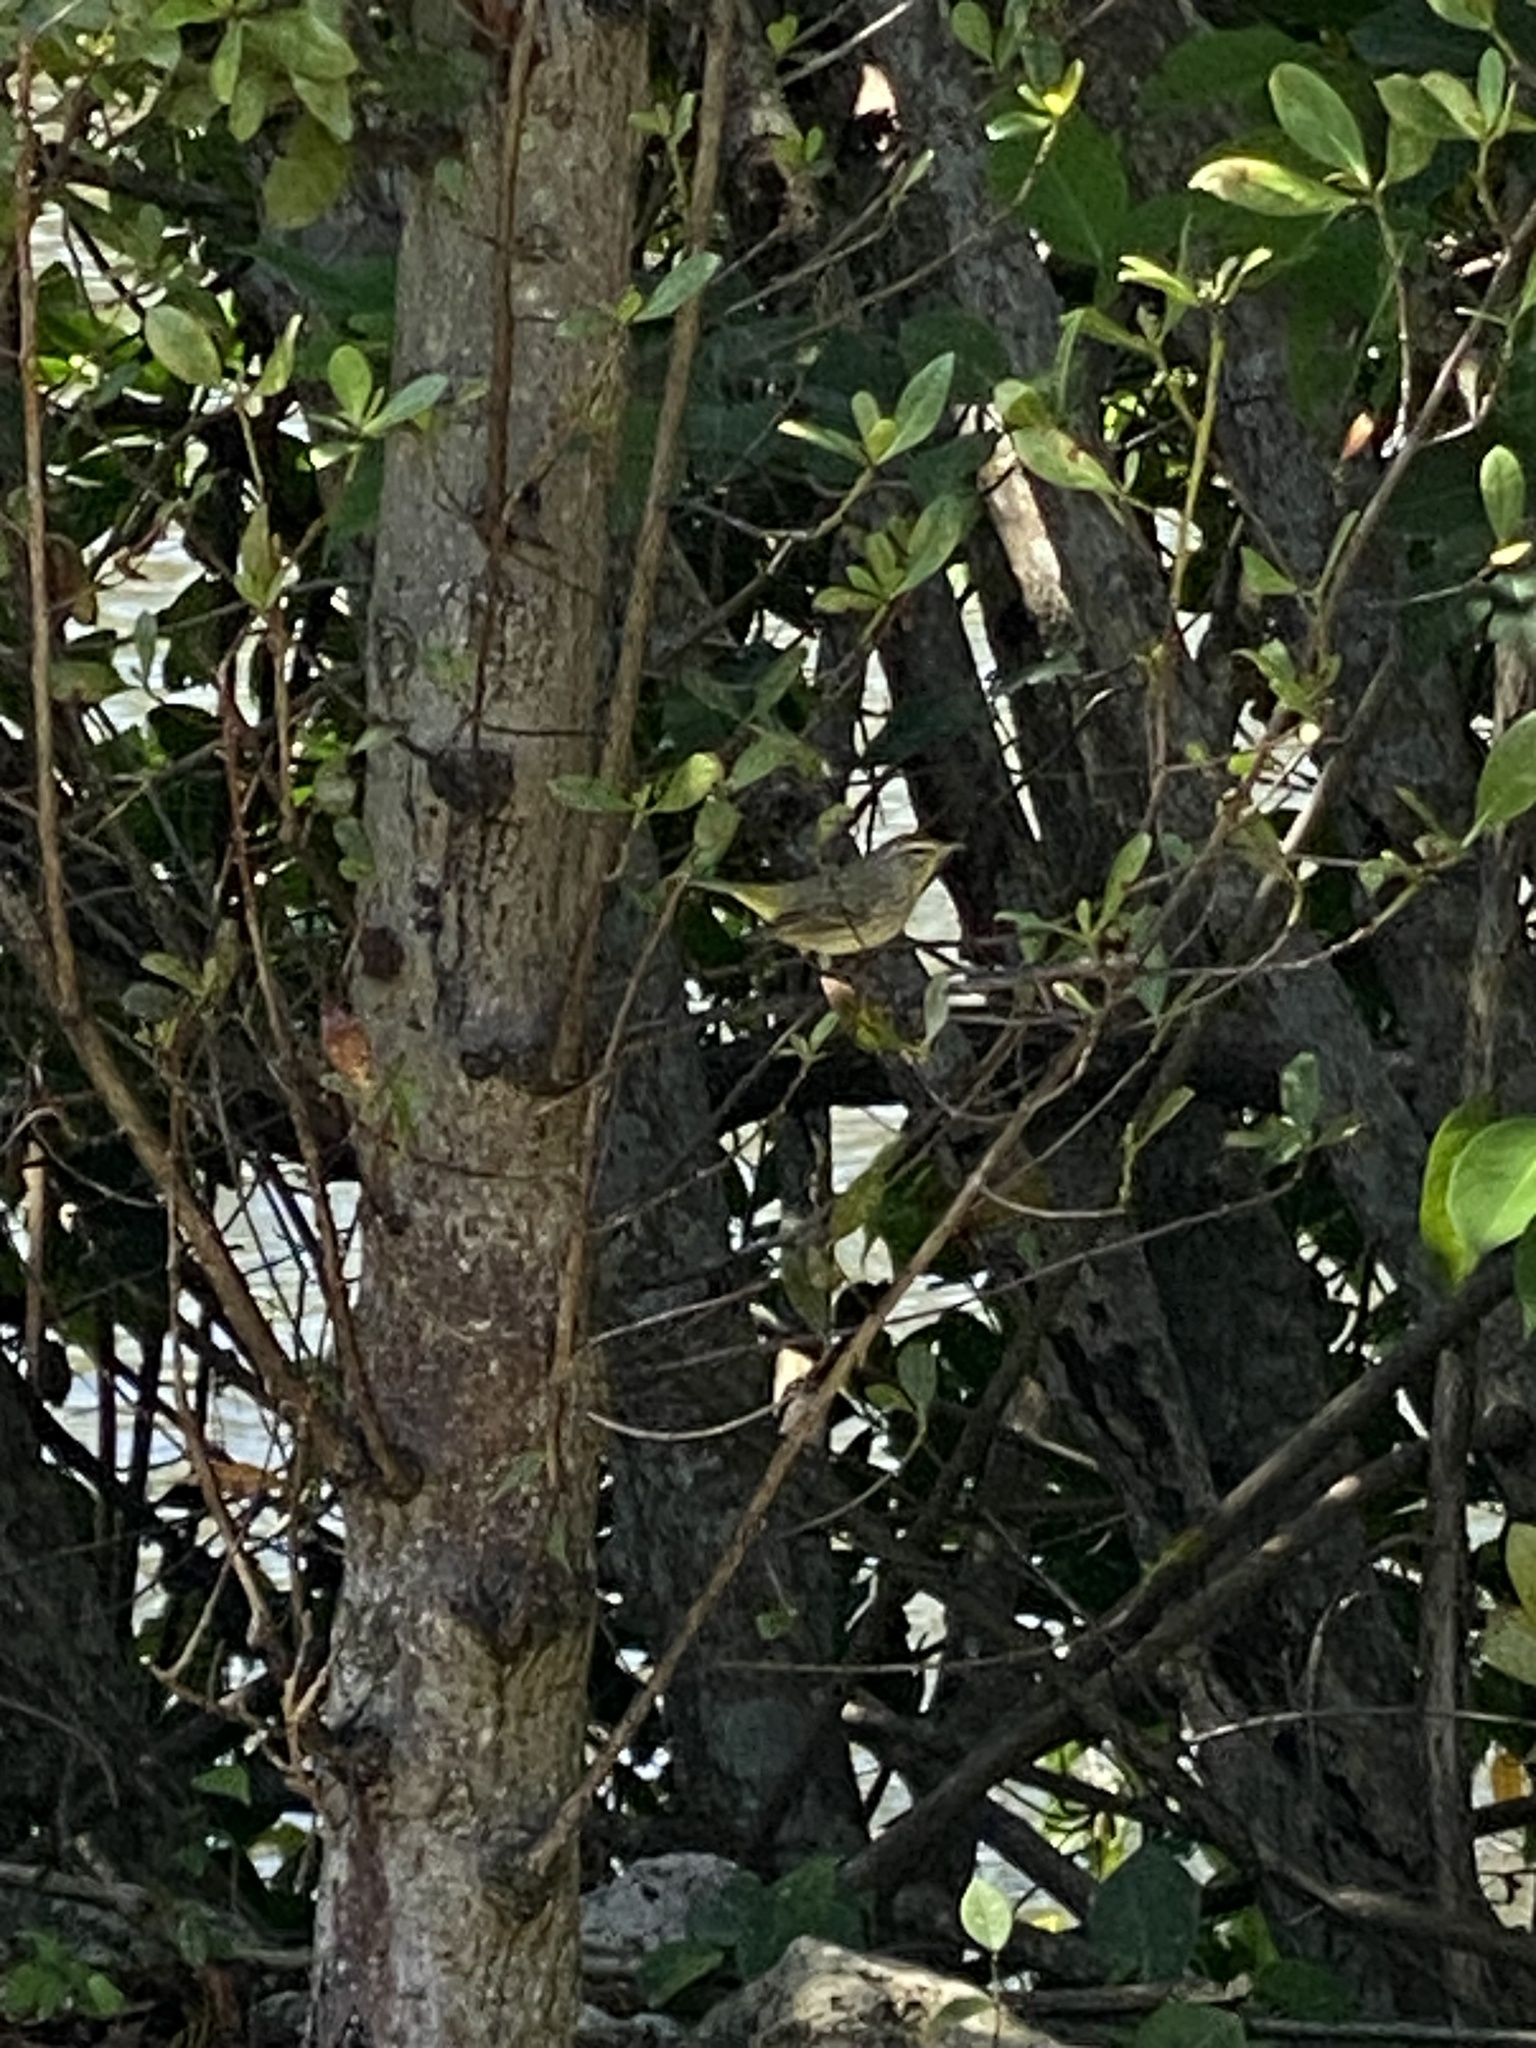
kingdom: Animalia
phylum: Chordata
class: Aves
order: Passeriformes
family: Parulidae
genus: Setophaga
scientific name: Setophaga palmarum
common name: Palm warbler
